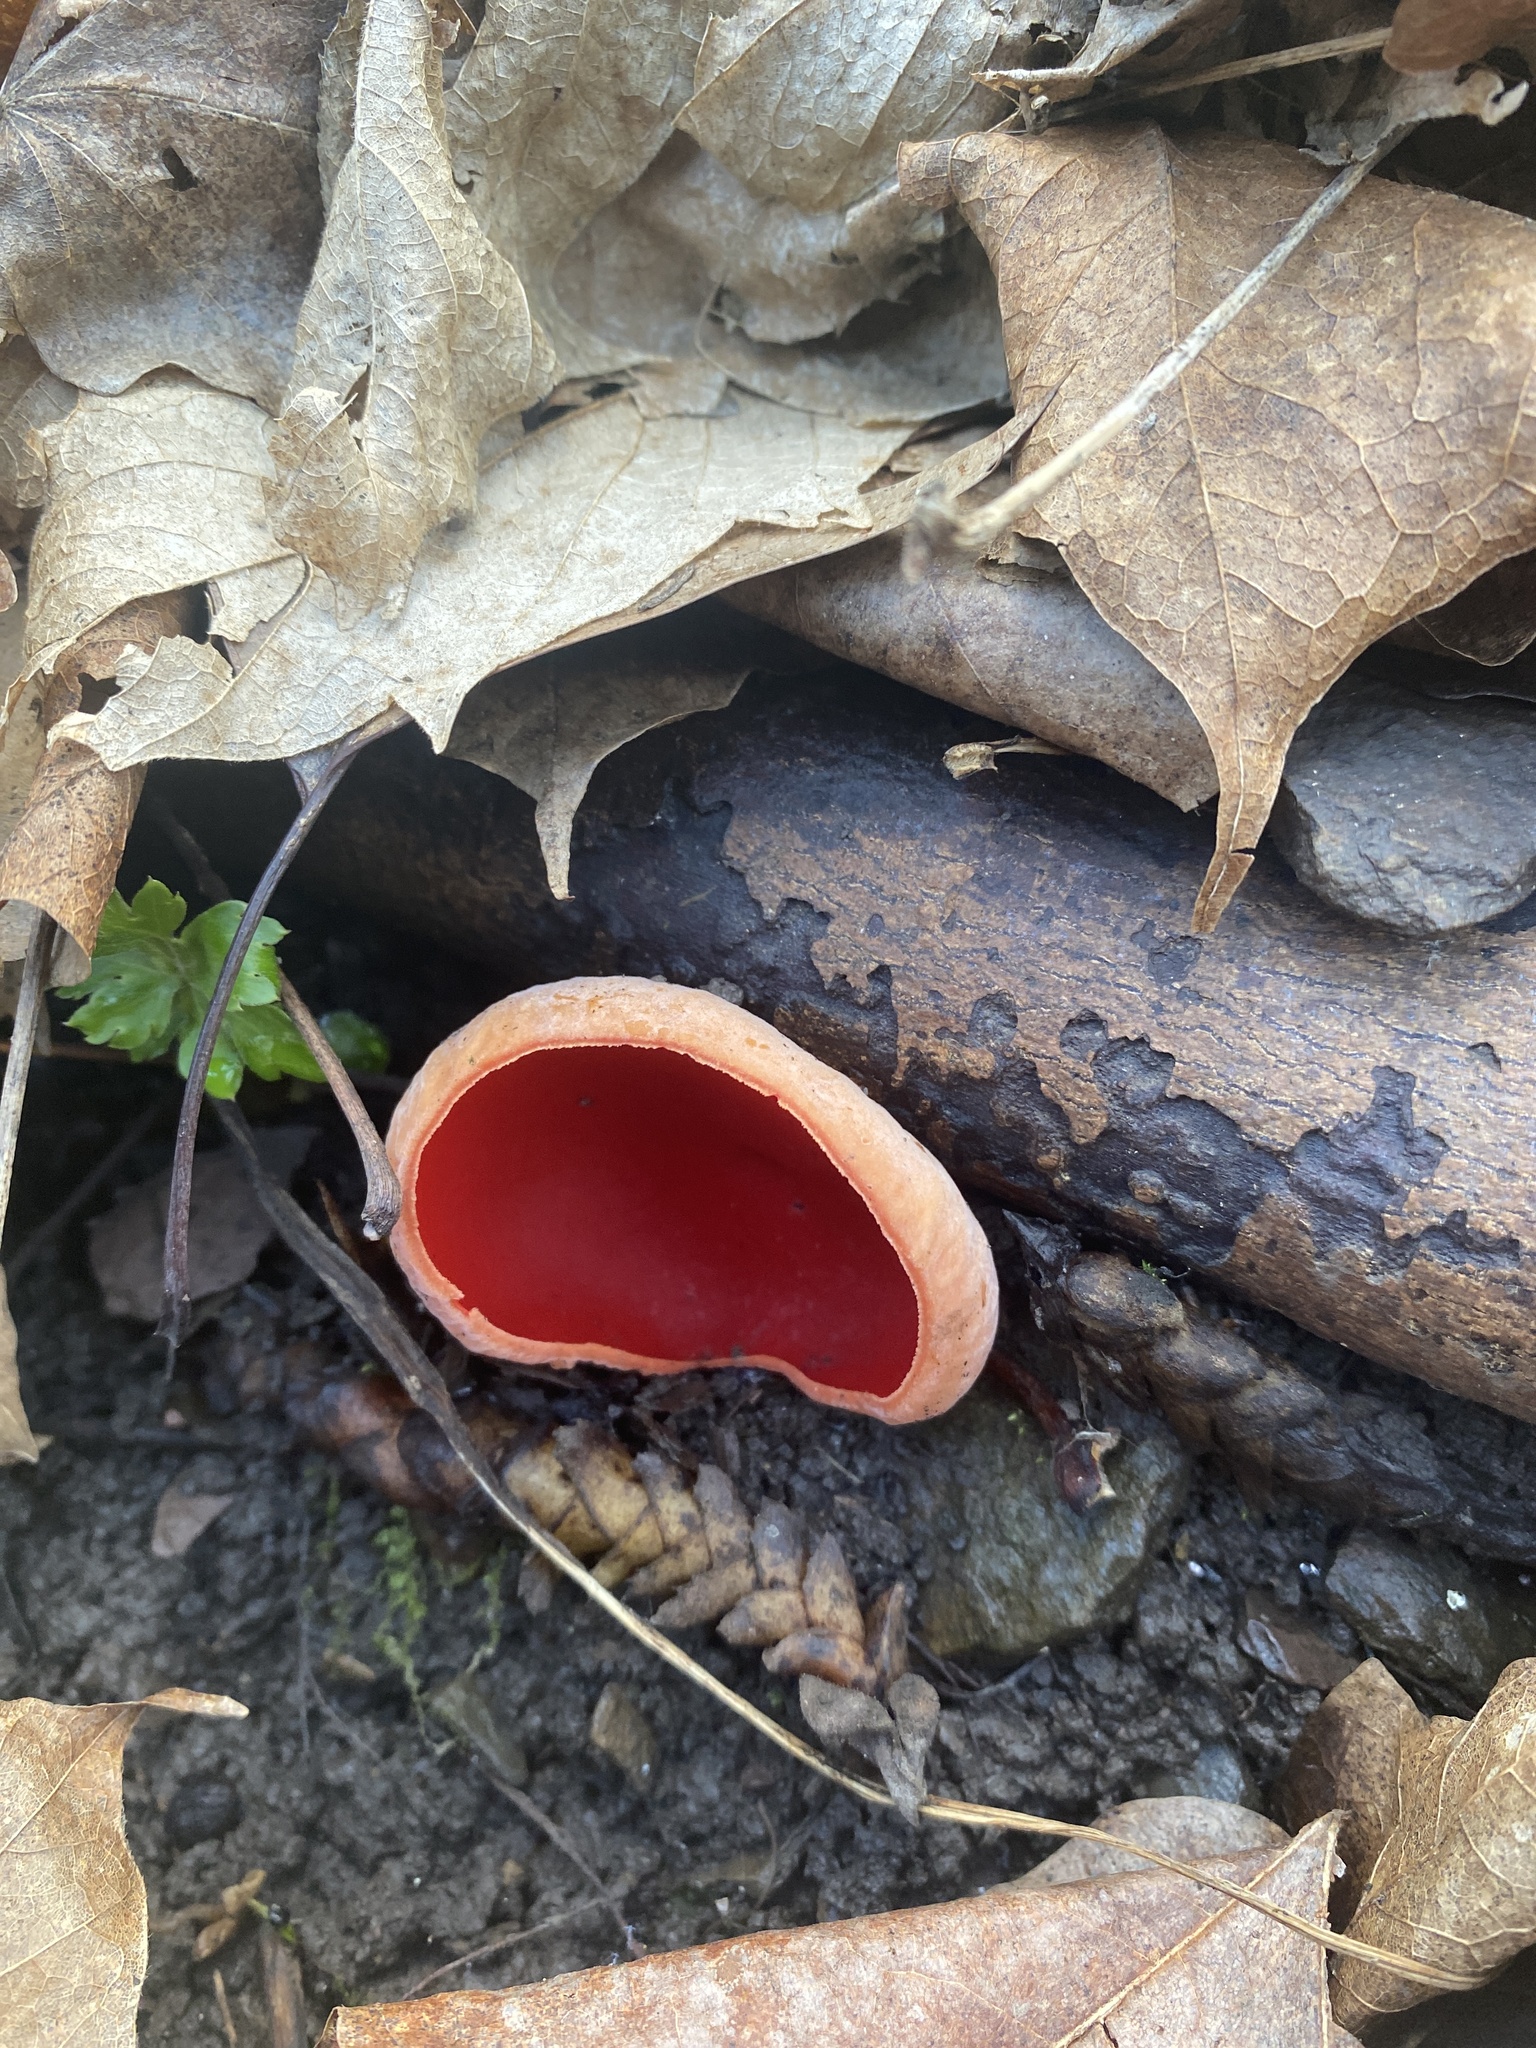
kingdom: Fungi
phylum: Ascomycota
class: Pezizomycetes
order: Pezizales
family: Sarcoscyphaceae
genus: Sarcoscypha
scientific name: Sarcoscypha austriaca
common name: Scarlet elfcup
